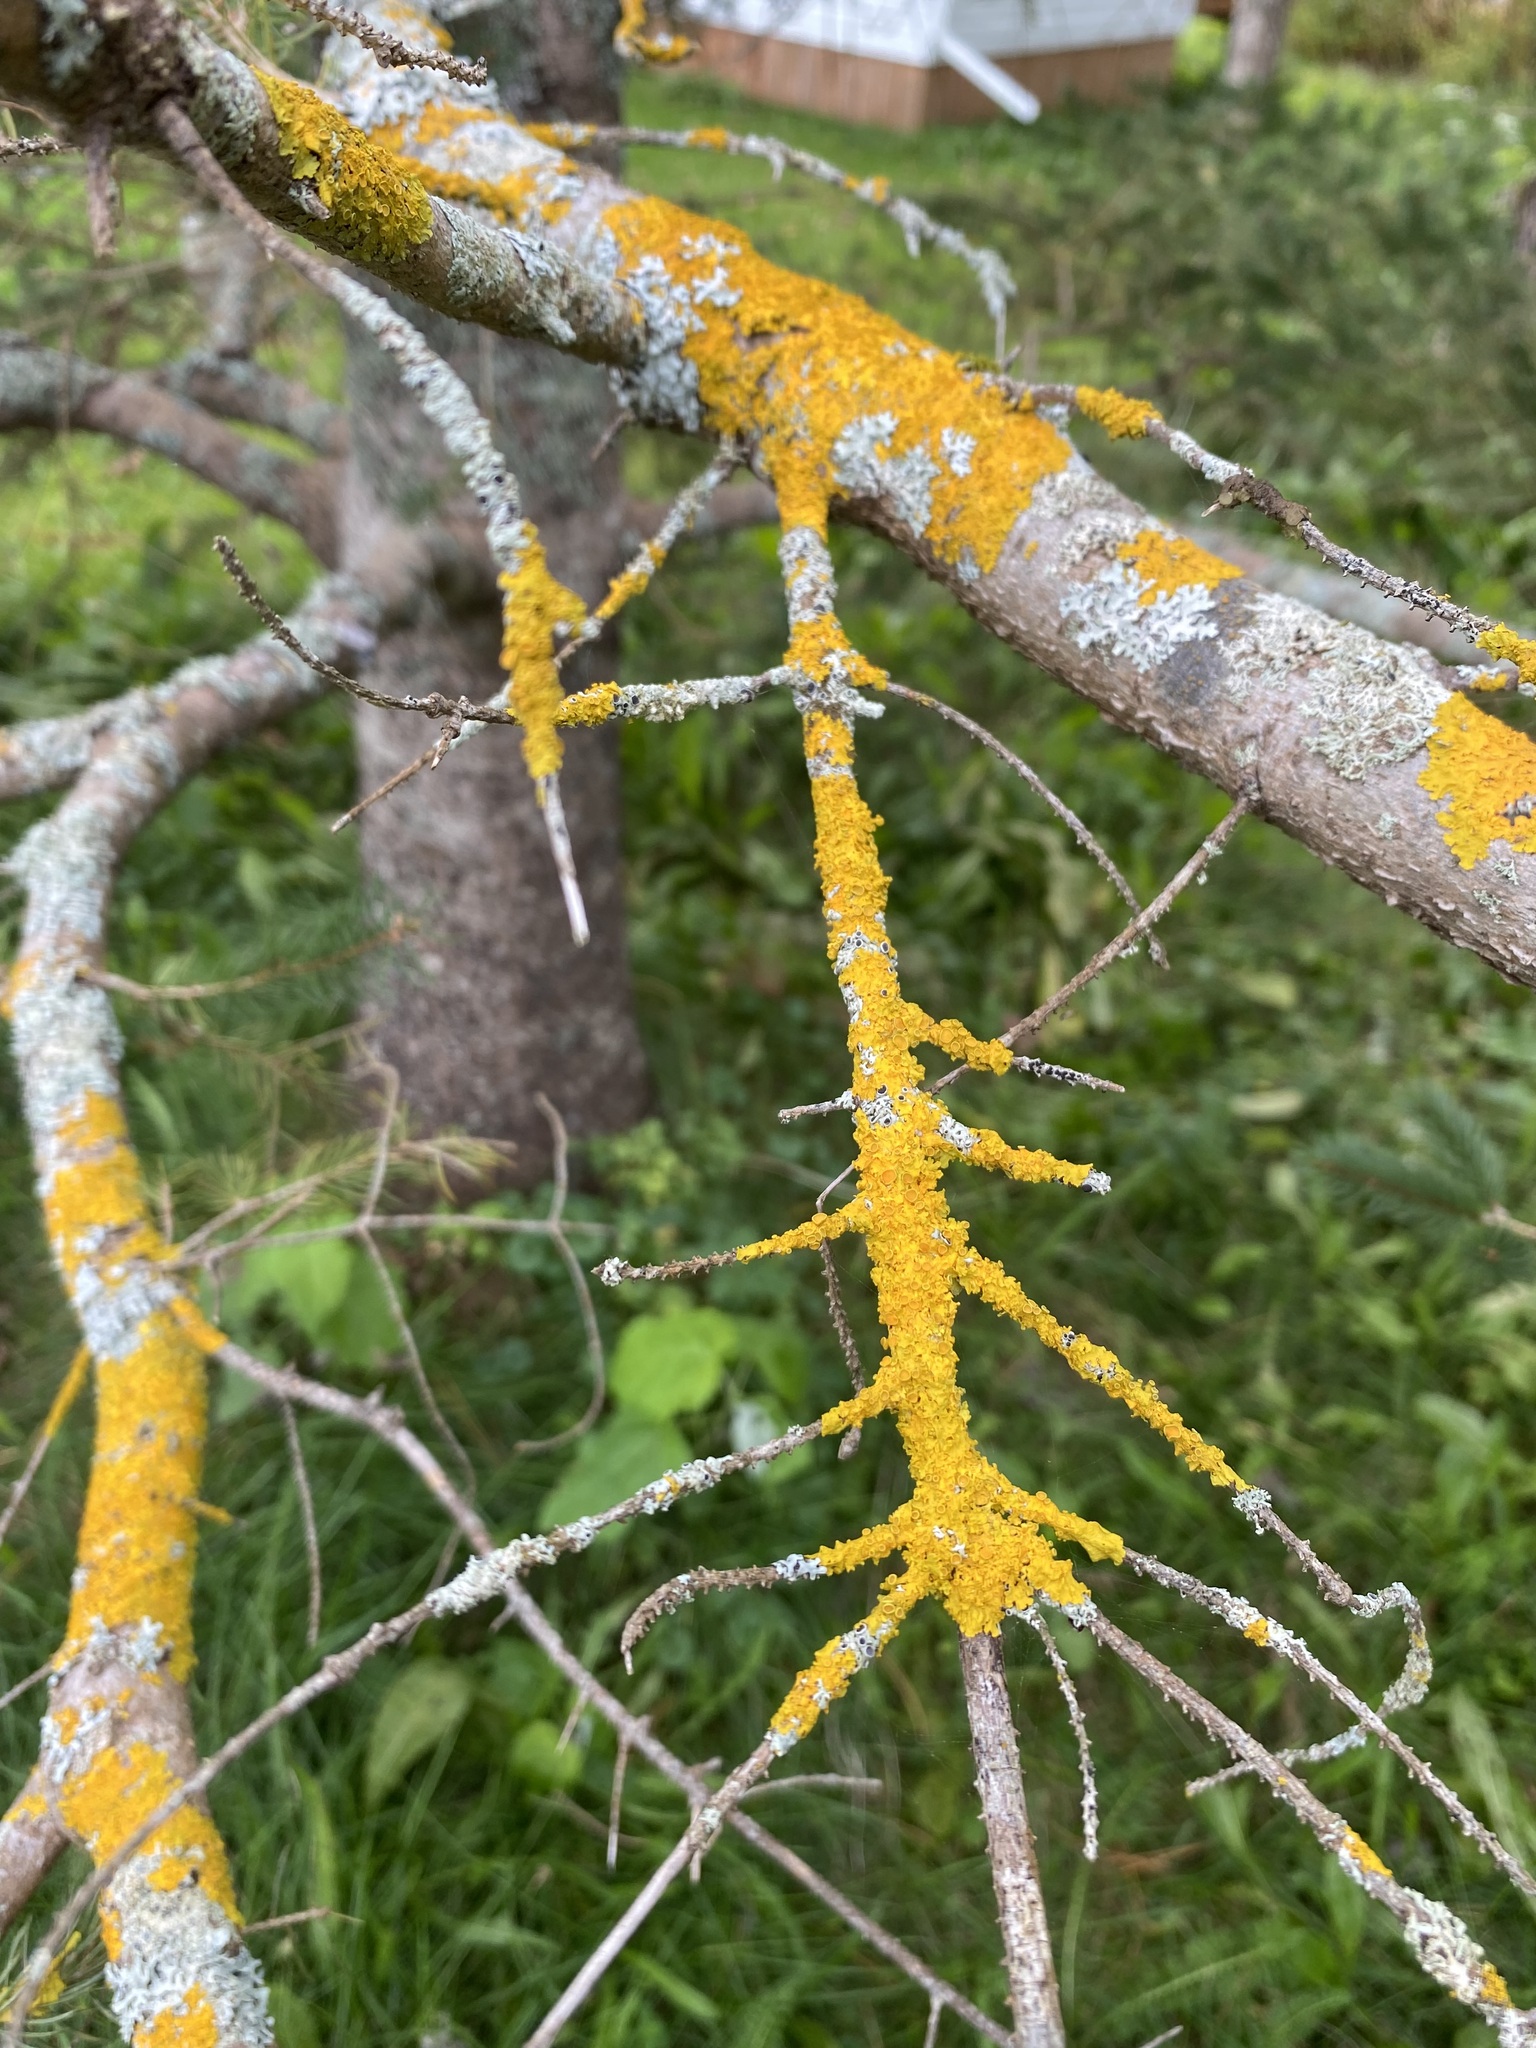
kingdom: Fungi
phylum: Ascomycota
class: Lecanoromycetes
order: Teloschistales
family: Teloschistaceae
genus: Xanthoria
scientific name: Xanthoria parietina
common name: Common orange lichen
